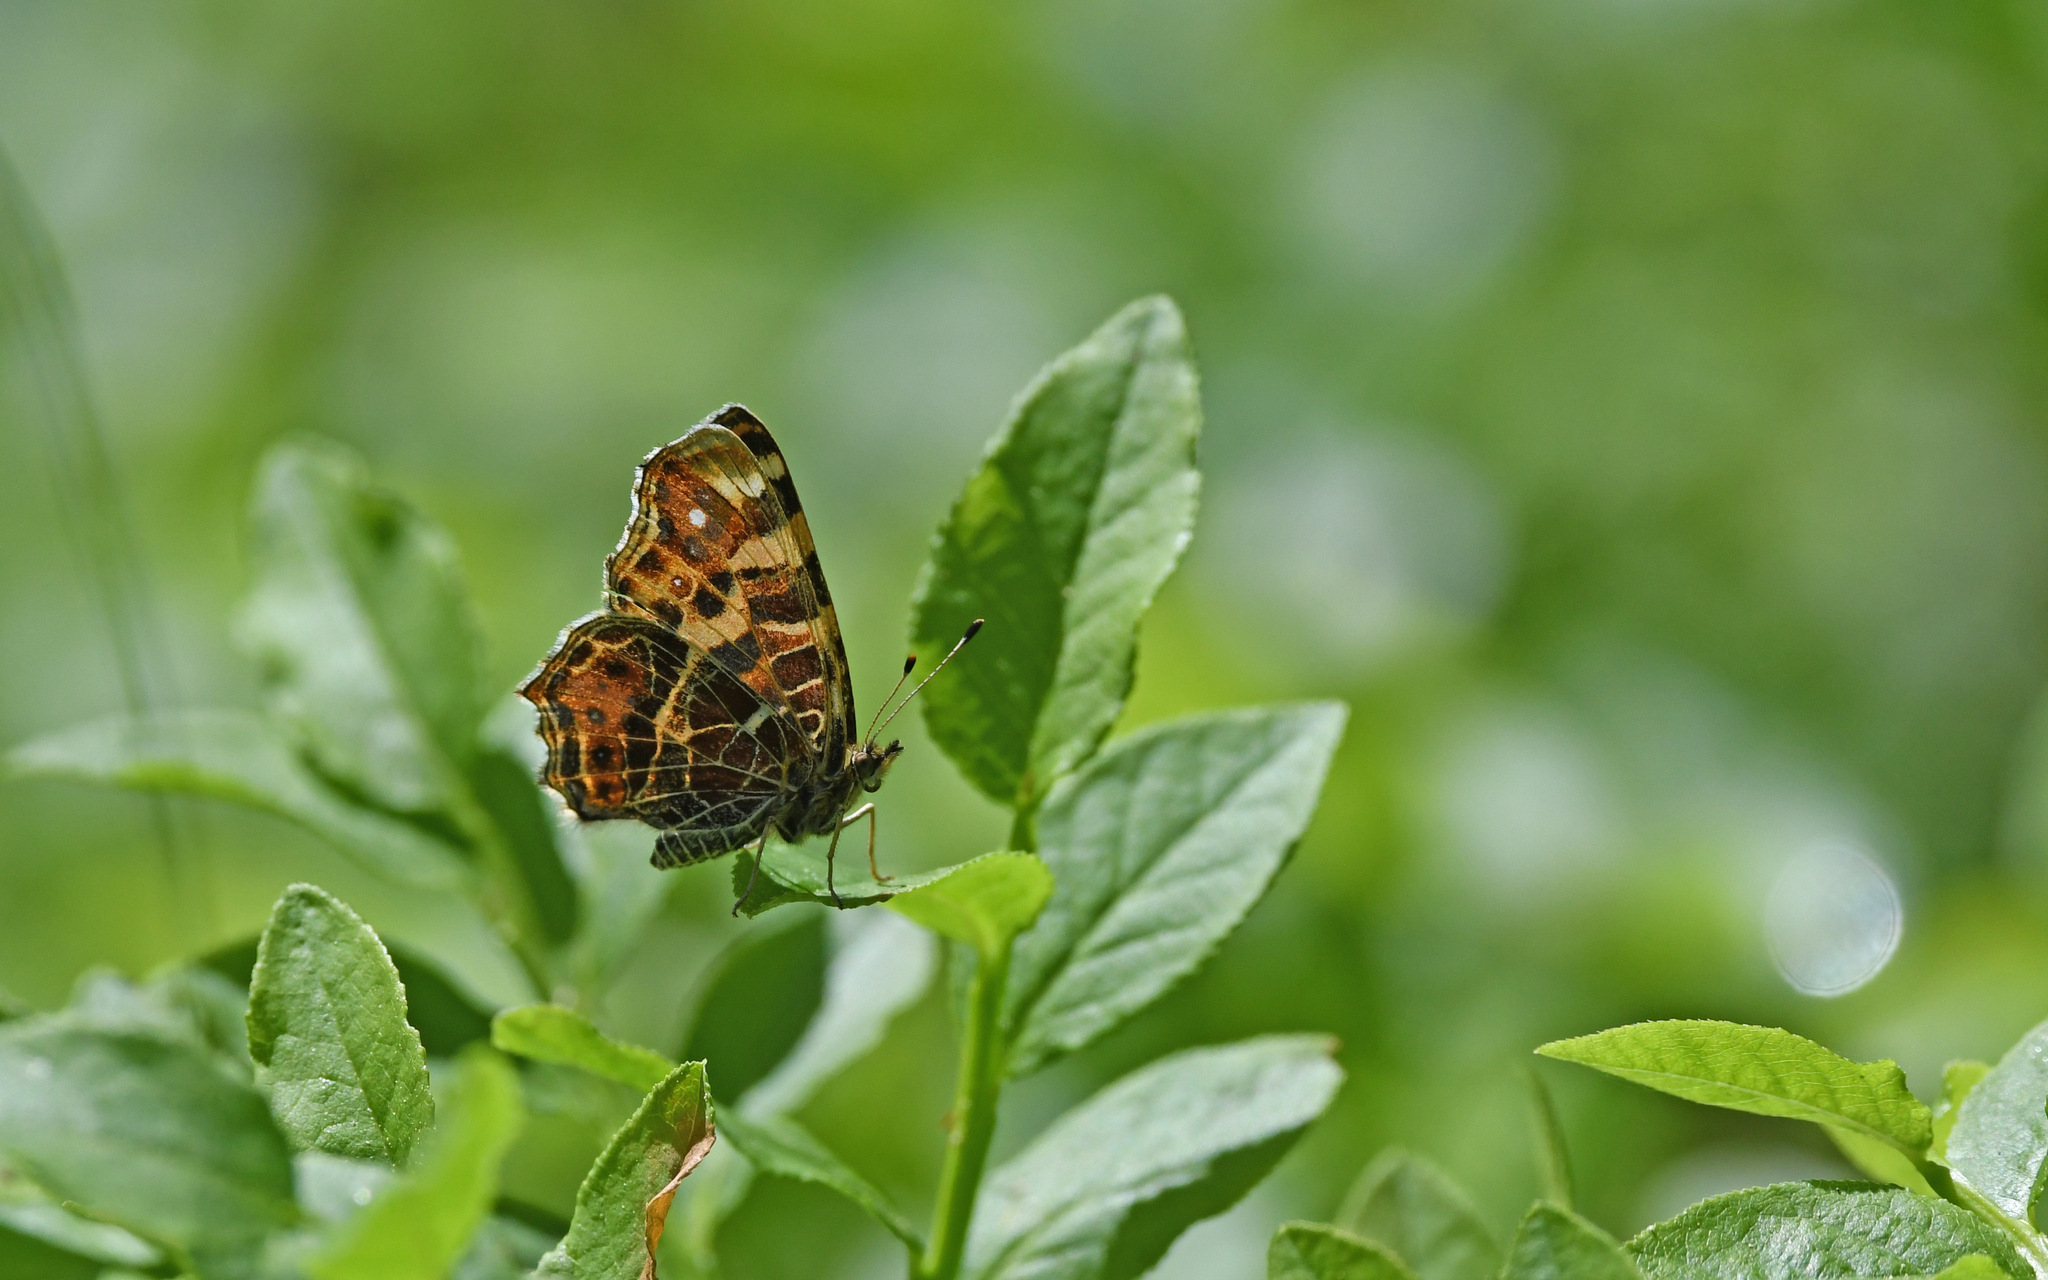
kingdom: Animalia
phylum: Arthropoda
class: Insecta
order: Lepidoptera
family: Nymphalidae
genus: Araschnia
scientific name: Araschnia levana
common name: Map butterfly
